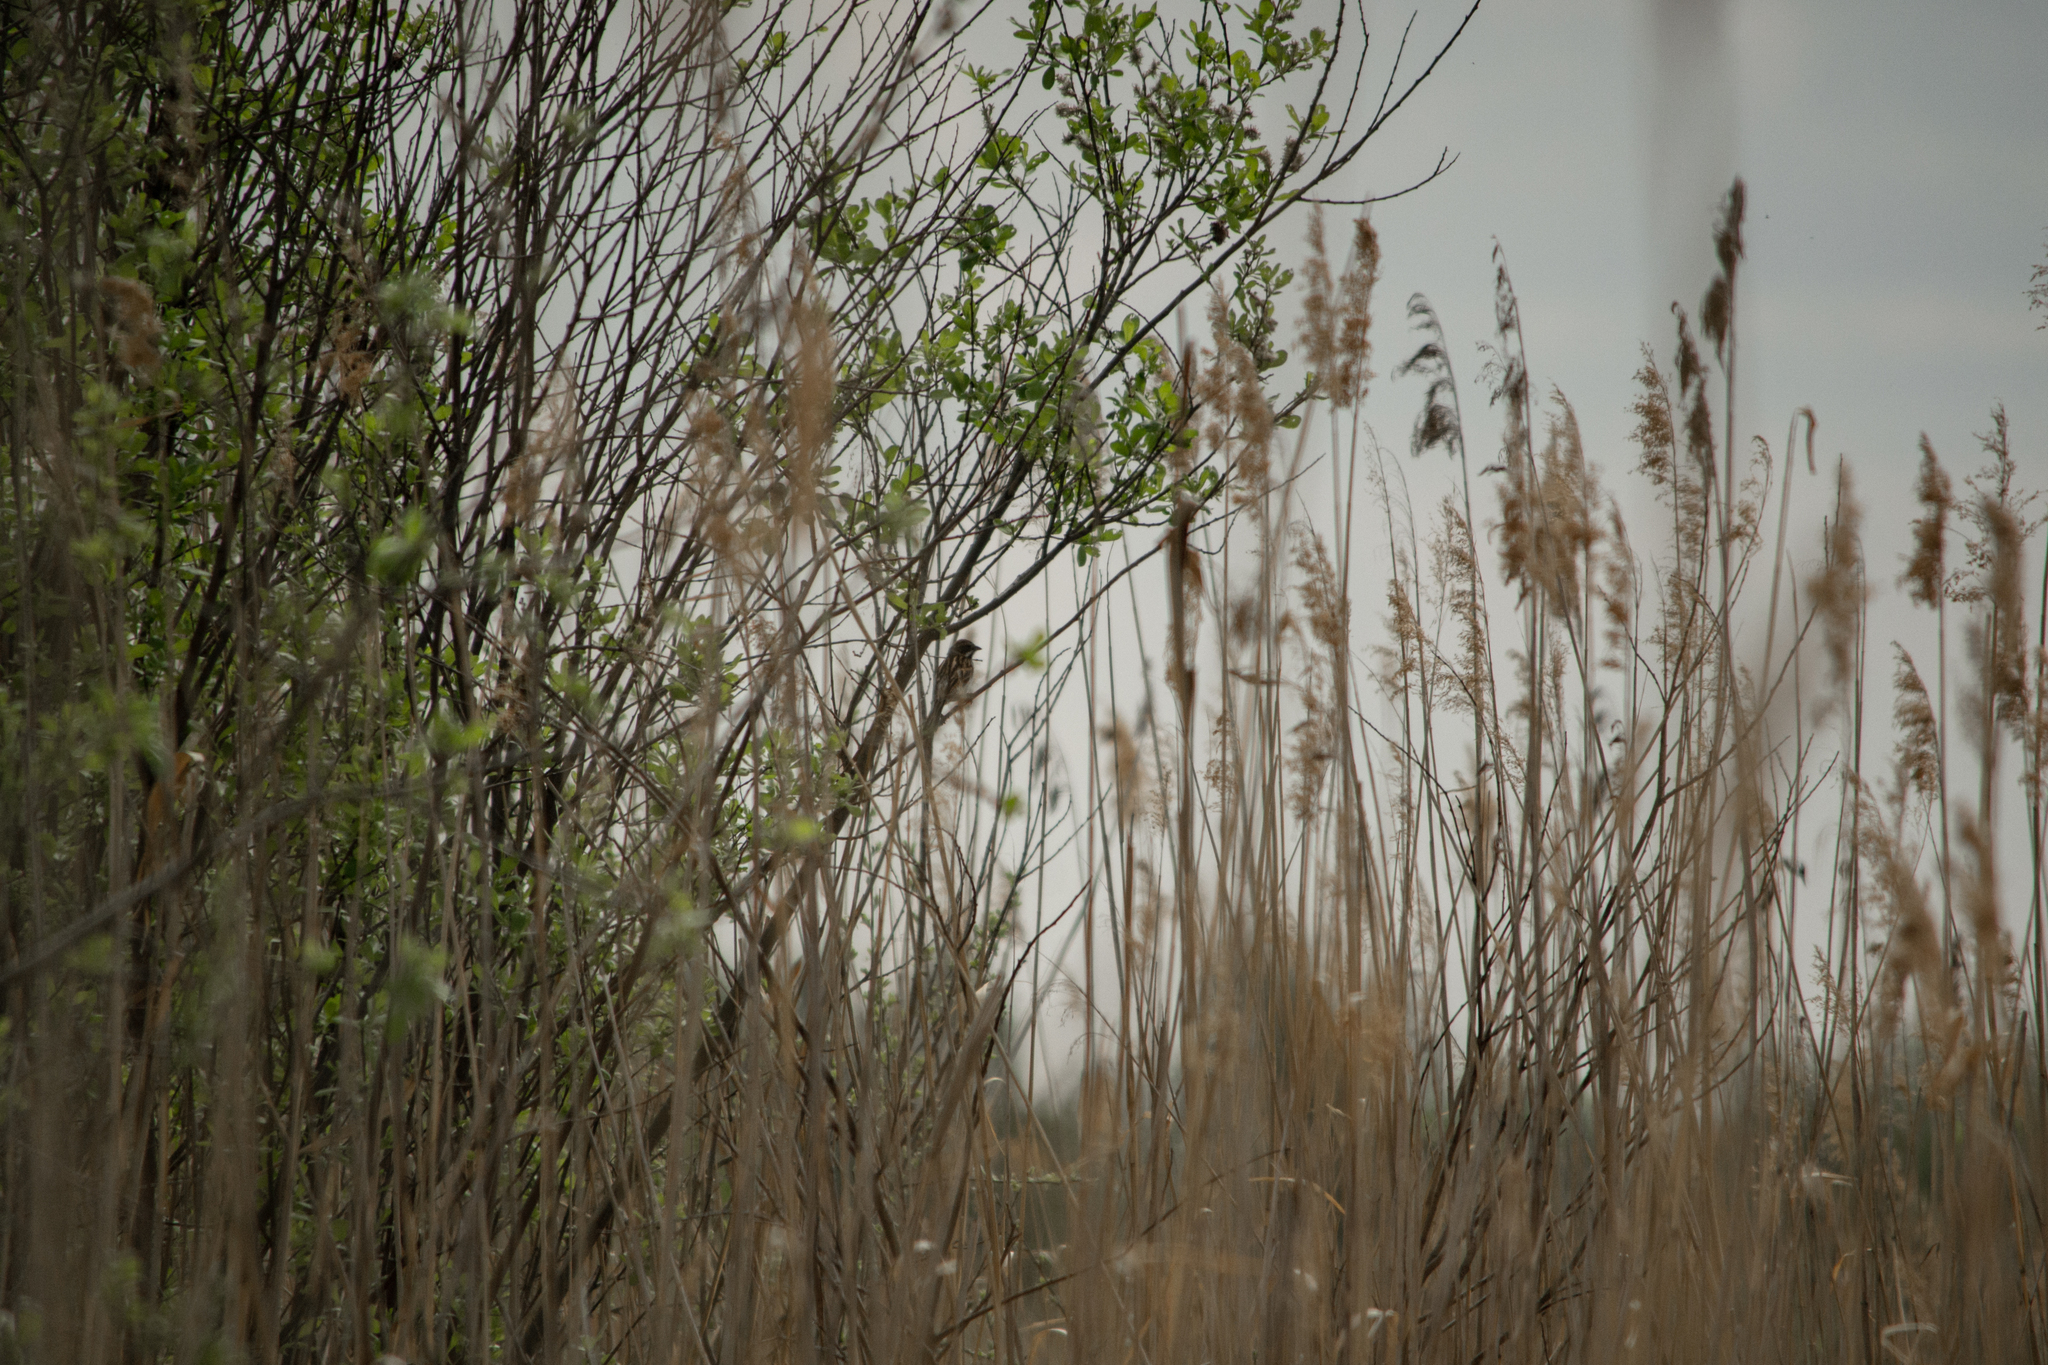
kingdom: Animalia
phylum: Chordata
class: Aves
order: Passeriformes
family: Emberizidae
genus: Emberiza
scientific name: Emberiza schoeniclus
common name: Reed bunting
